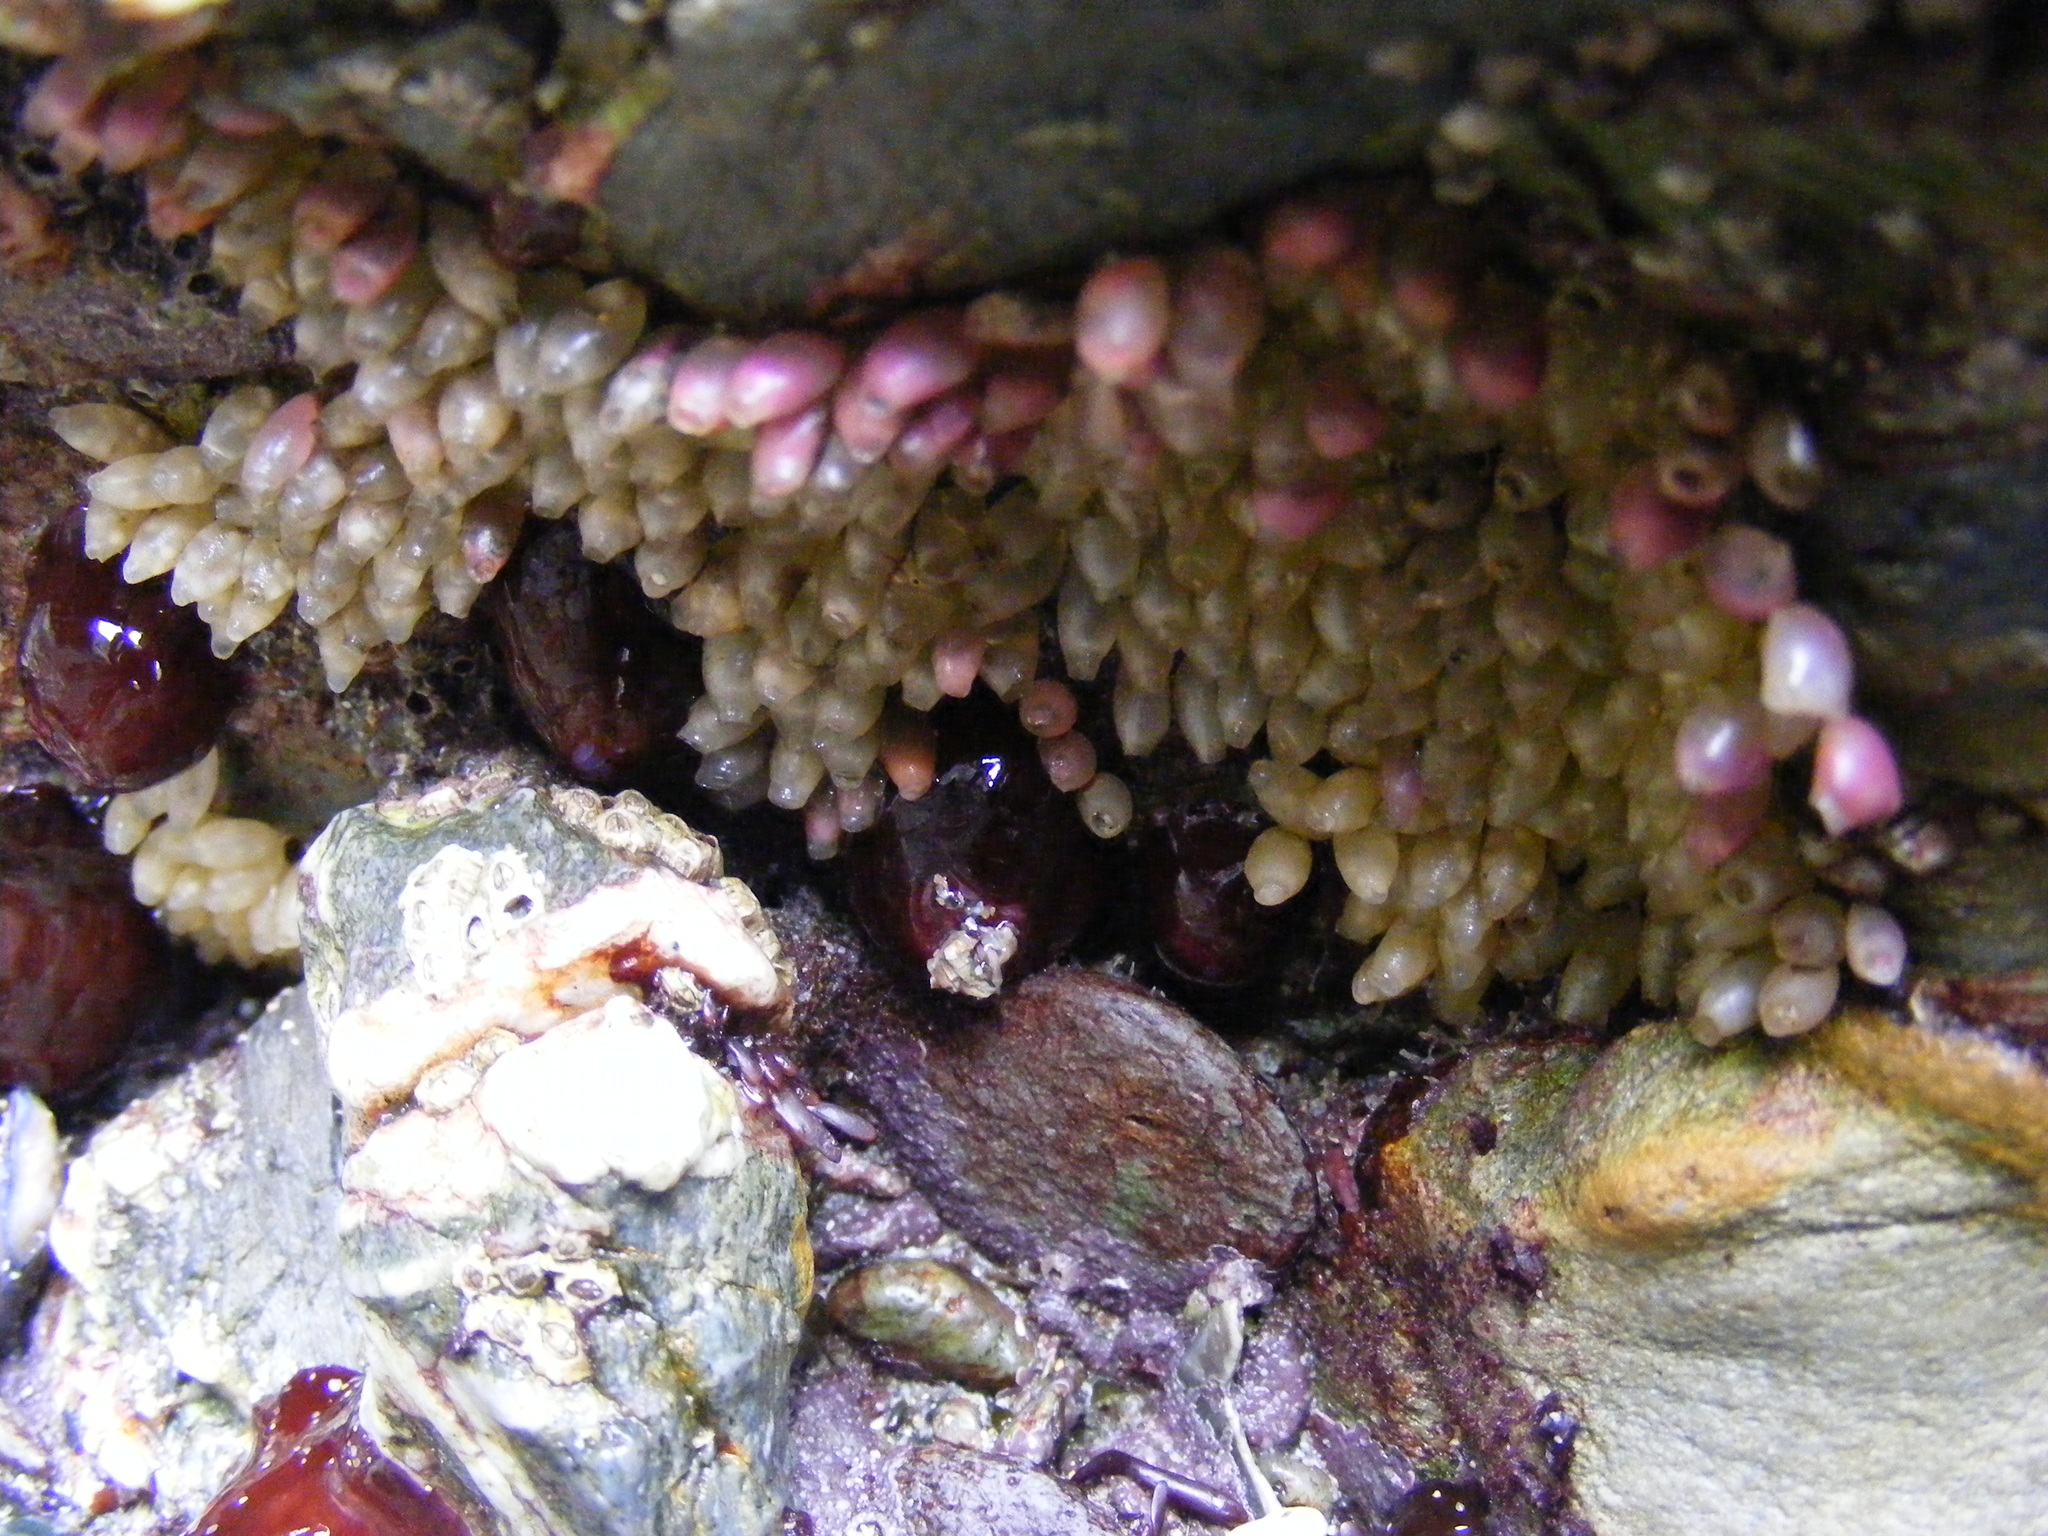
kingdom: Animalia
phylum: Mollusca
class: Gastropoda
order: Neogastropoda
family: Muricidae
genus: Nucella
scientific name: Nucella lapillus
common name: Dog whelk
